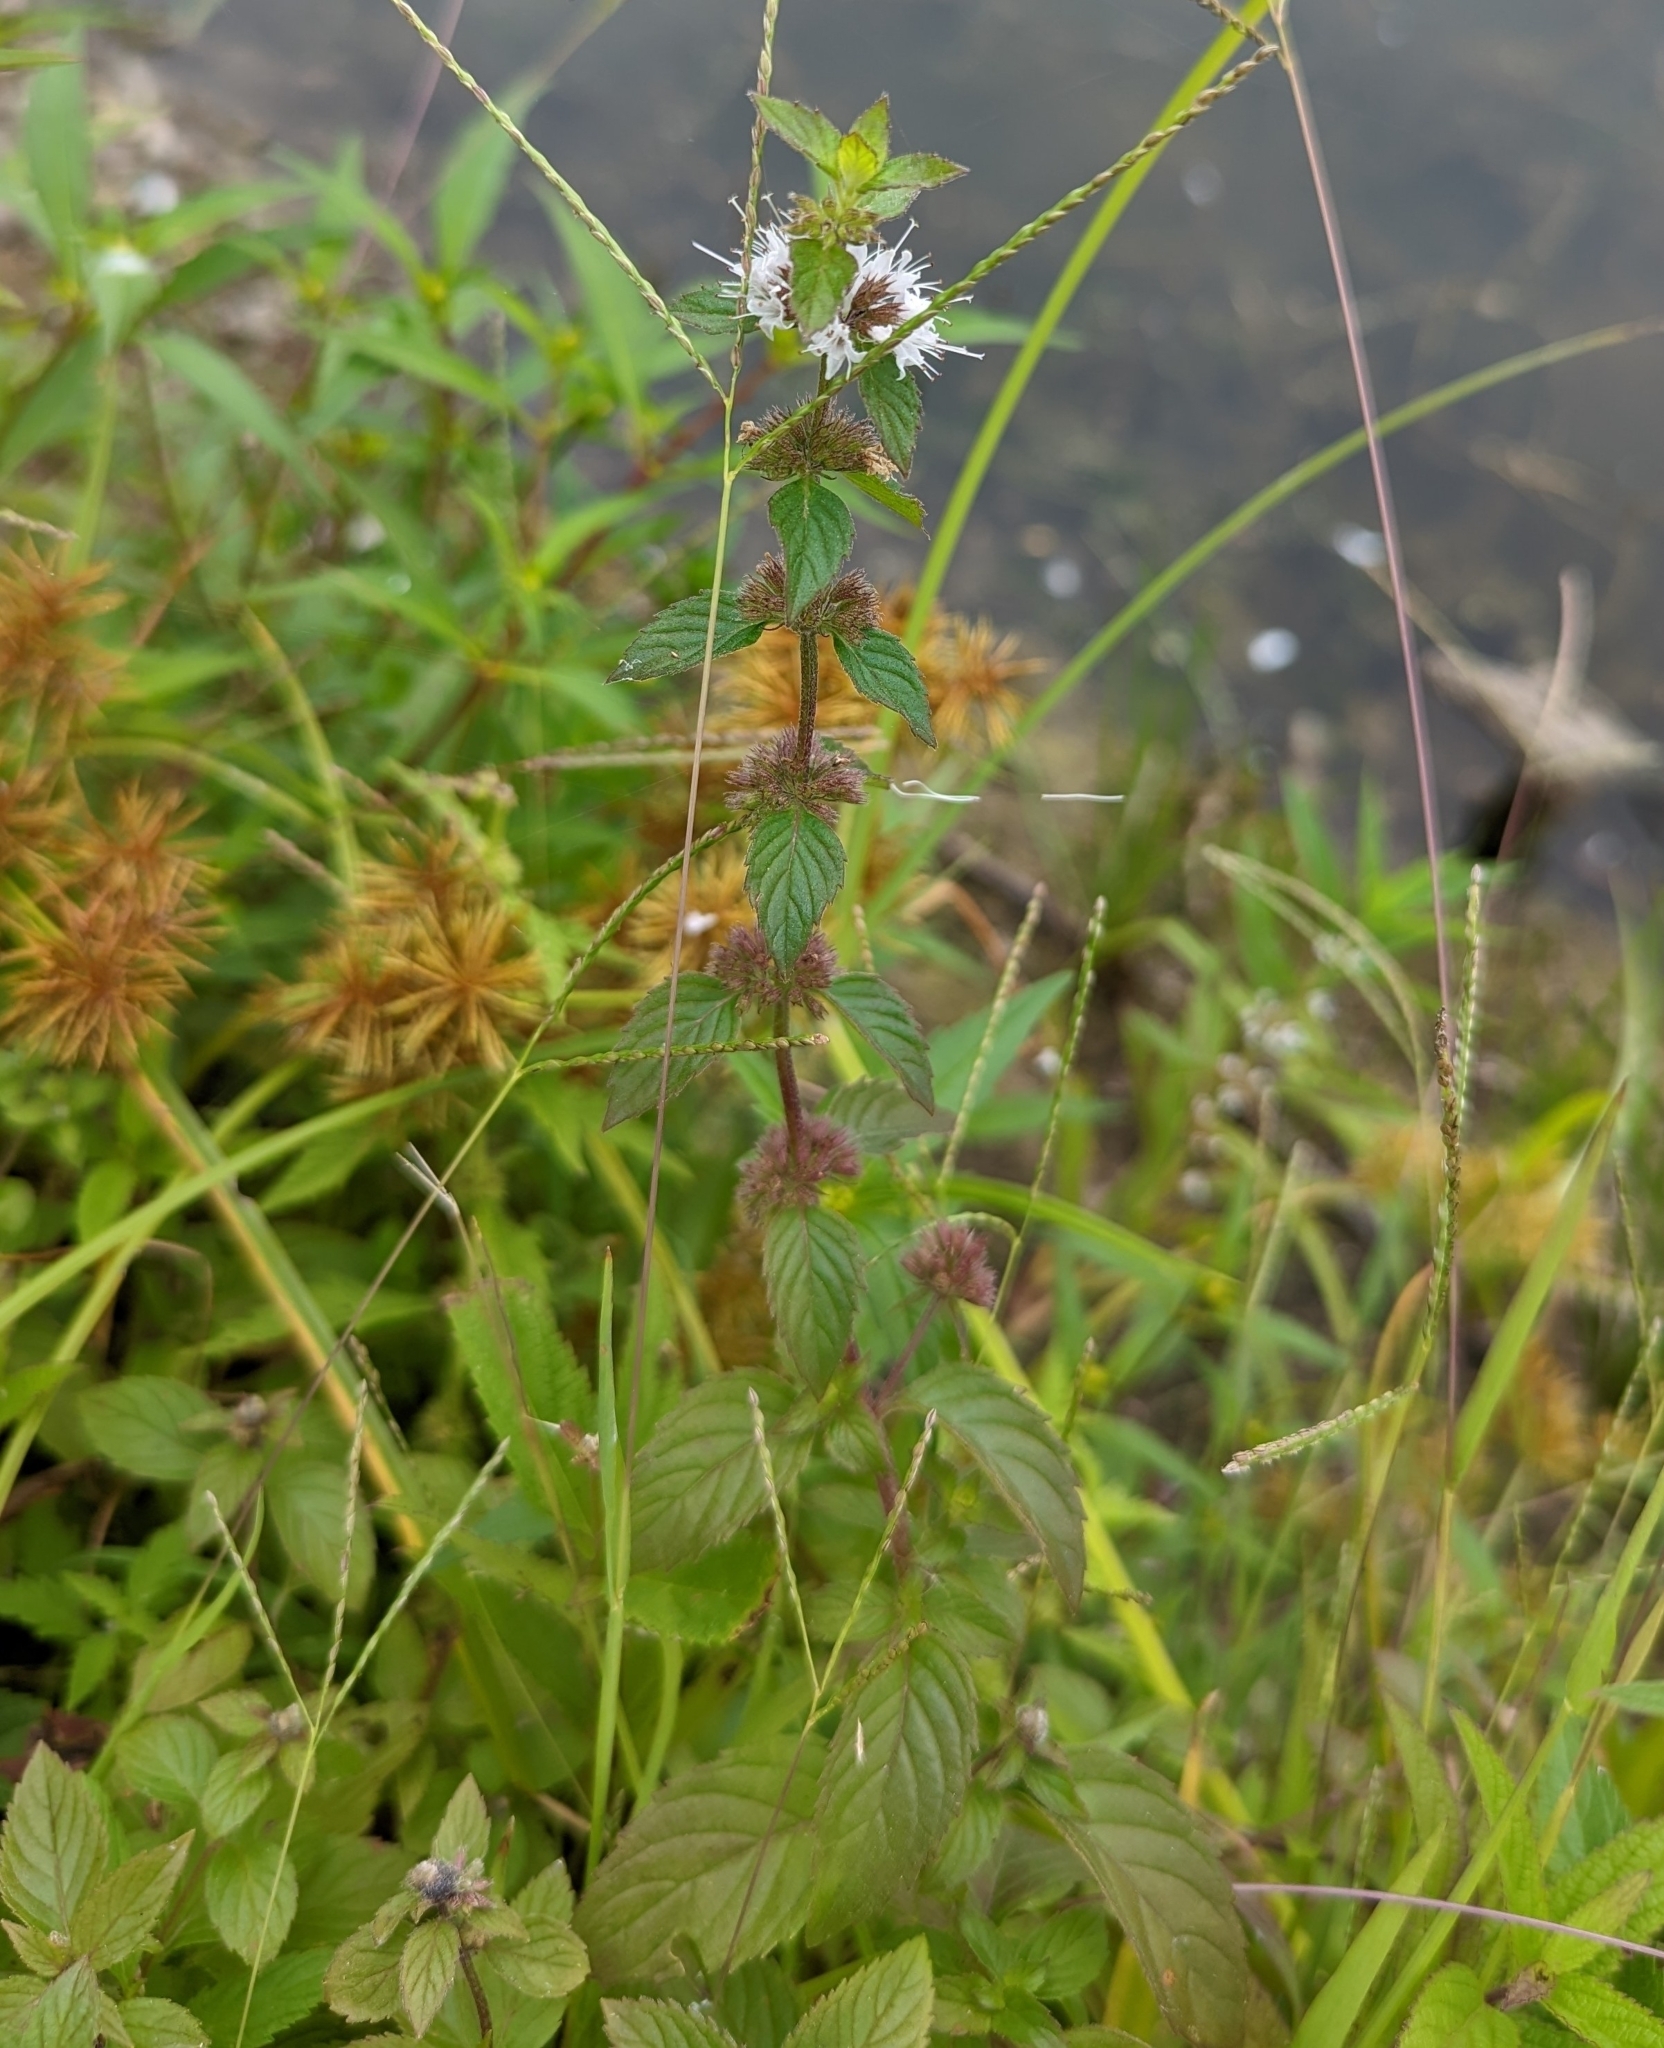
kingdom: Plantae
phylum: Tracheophyta
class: Magnoliopsida
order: Lamiales
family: Lamiaceae
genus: Mentha
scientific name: Mentha canadensis
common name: American corn mint
